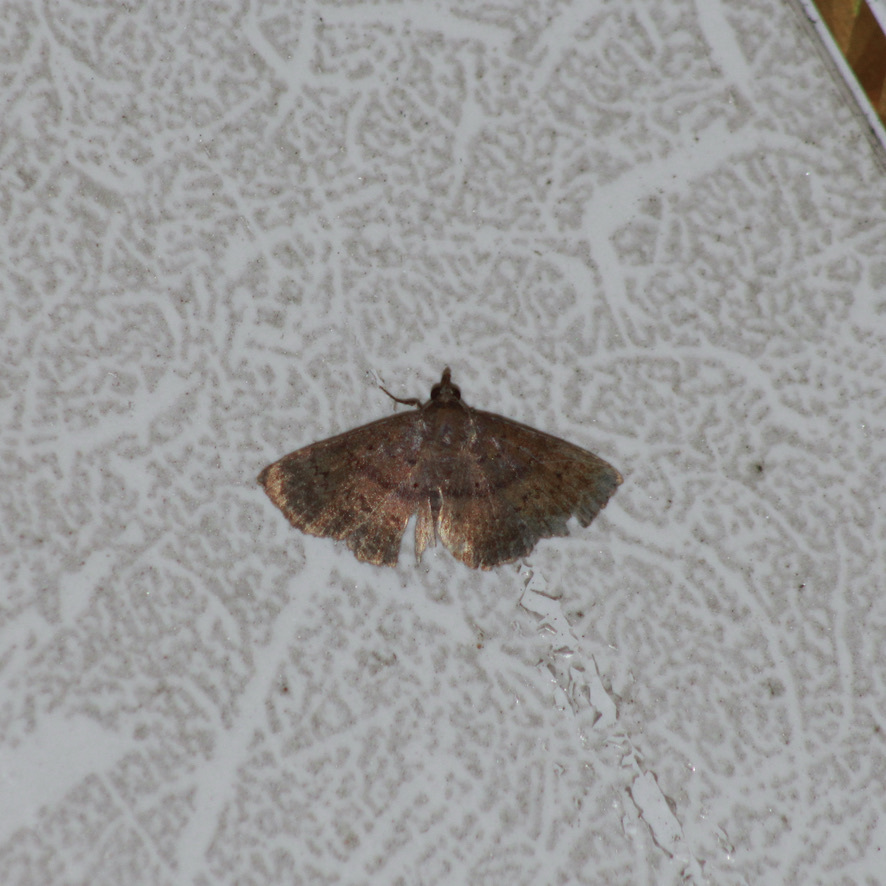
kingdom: Animalia
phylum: Arthropoda
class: Insecta
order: Lepidoptera
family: Erebidae
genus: Bleptina
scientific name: Bleptina dejecta
